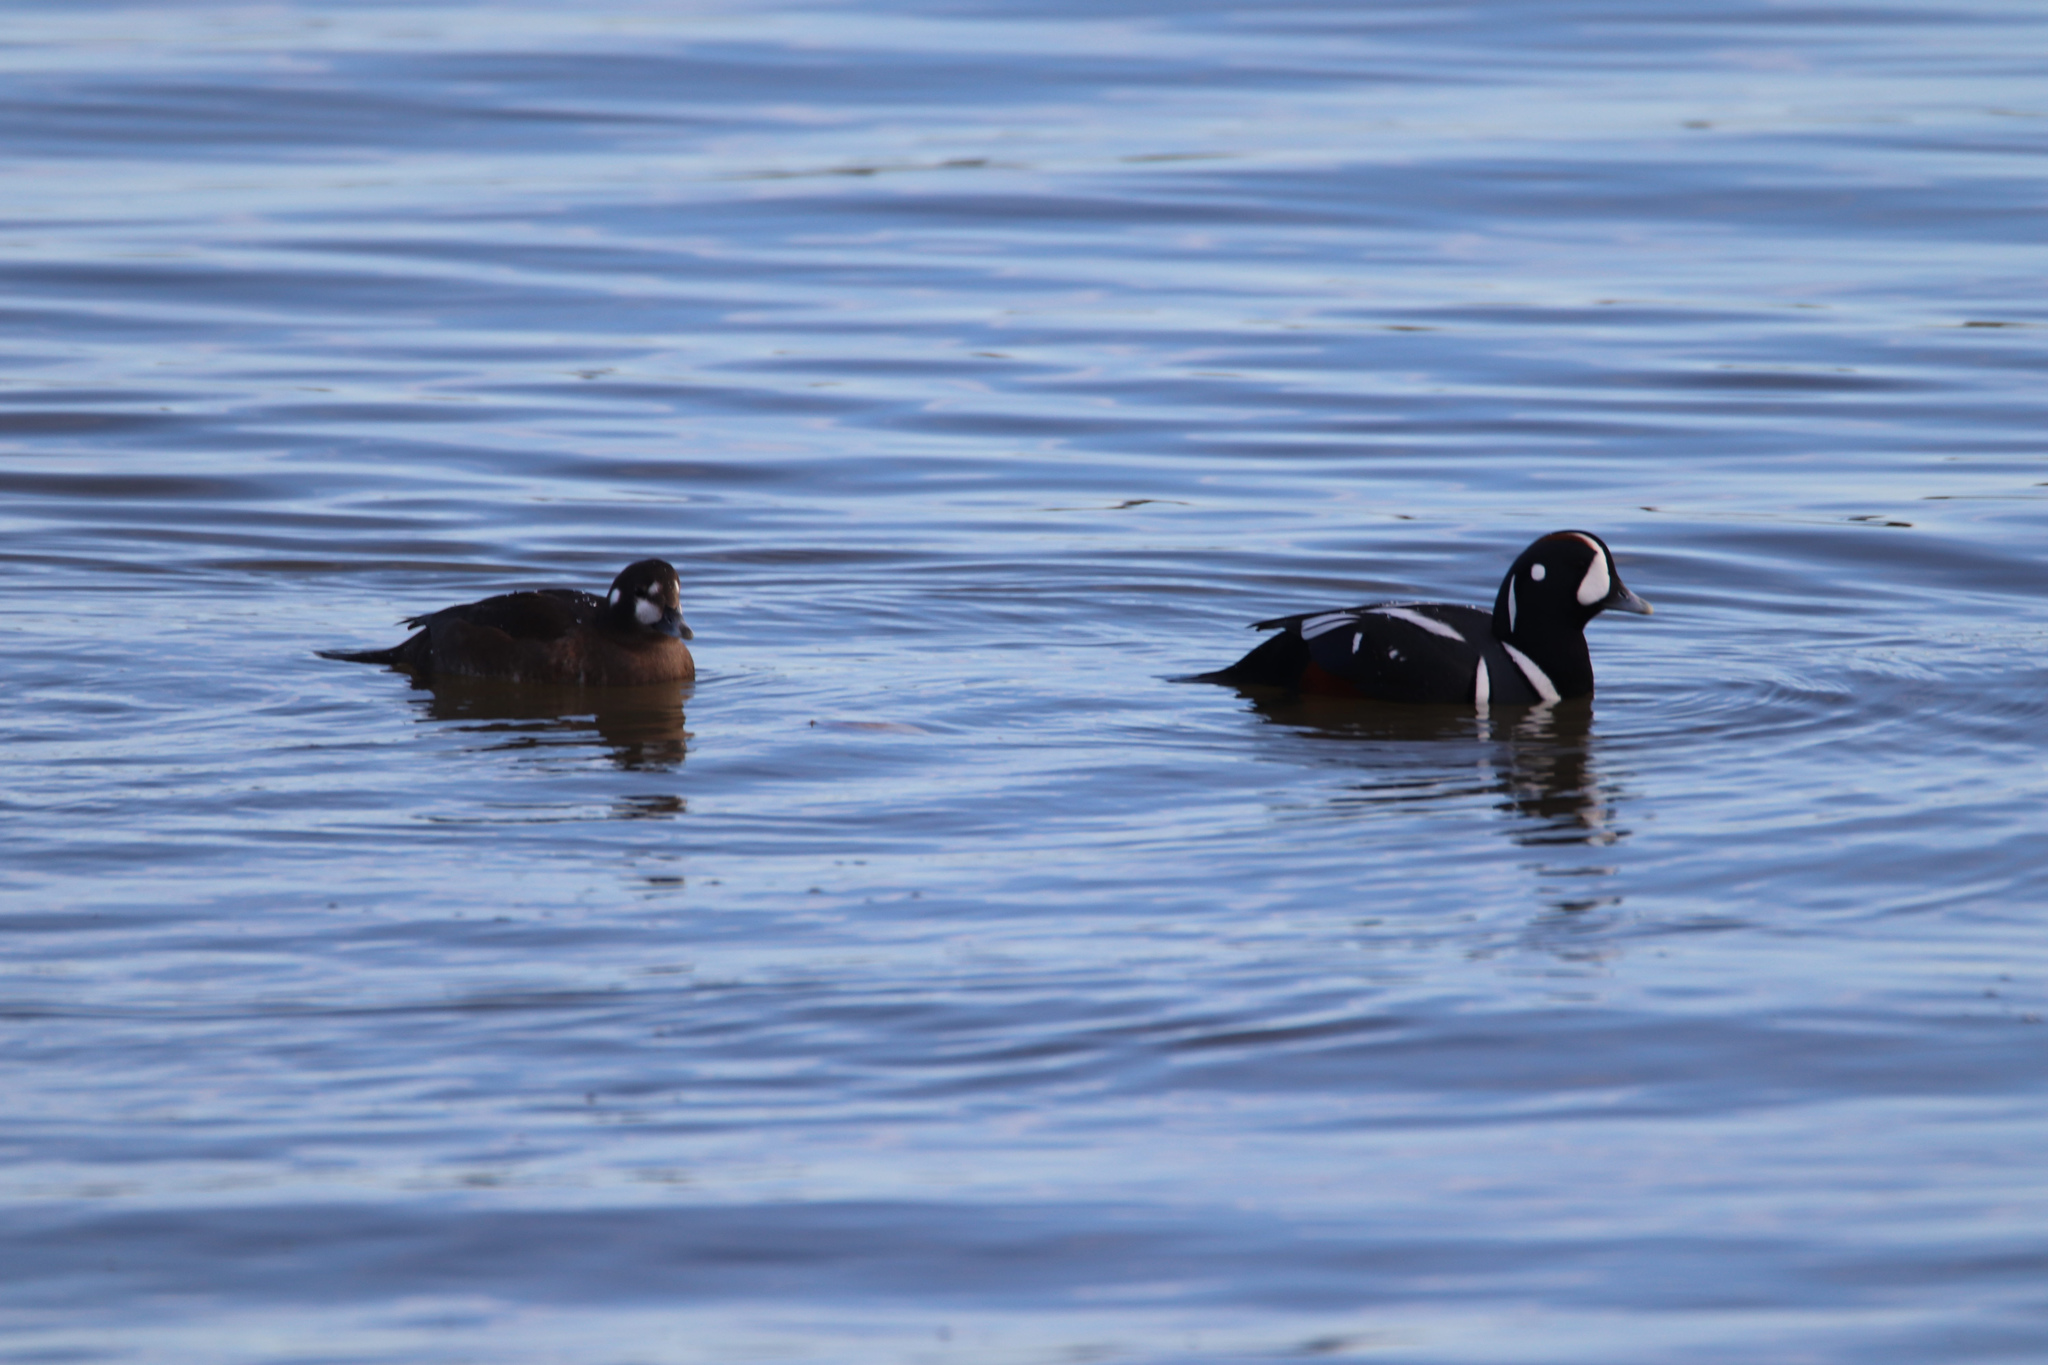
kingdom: Animalia
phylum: Chordata
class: Aves
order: Anseriformes
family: Anatidae
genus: Histrionicus
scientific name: Histrionicus histrionicus
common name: Harlequin duck
